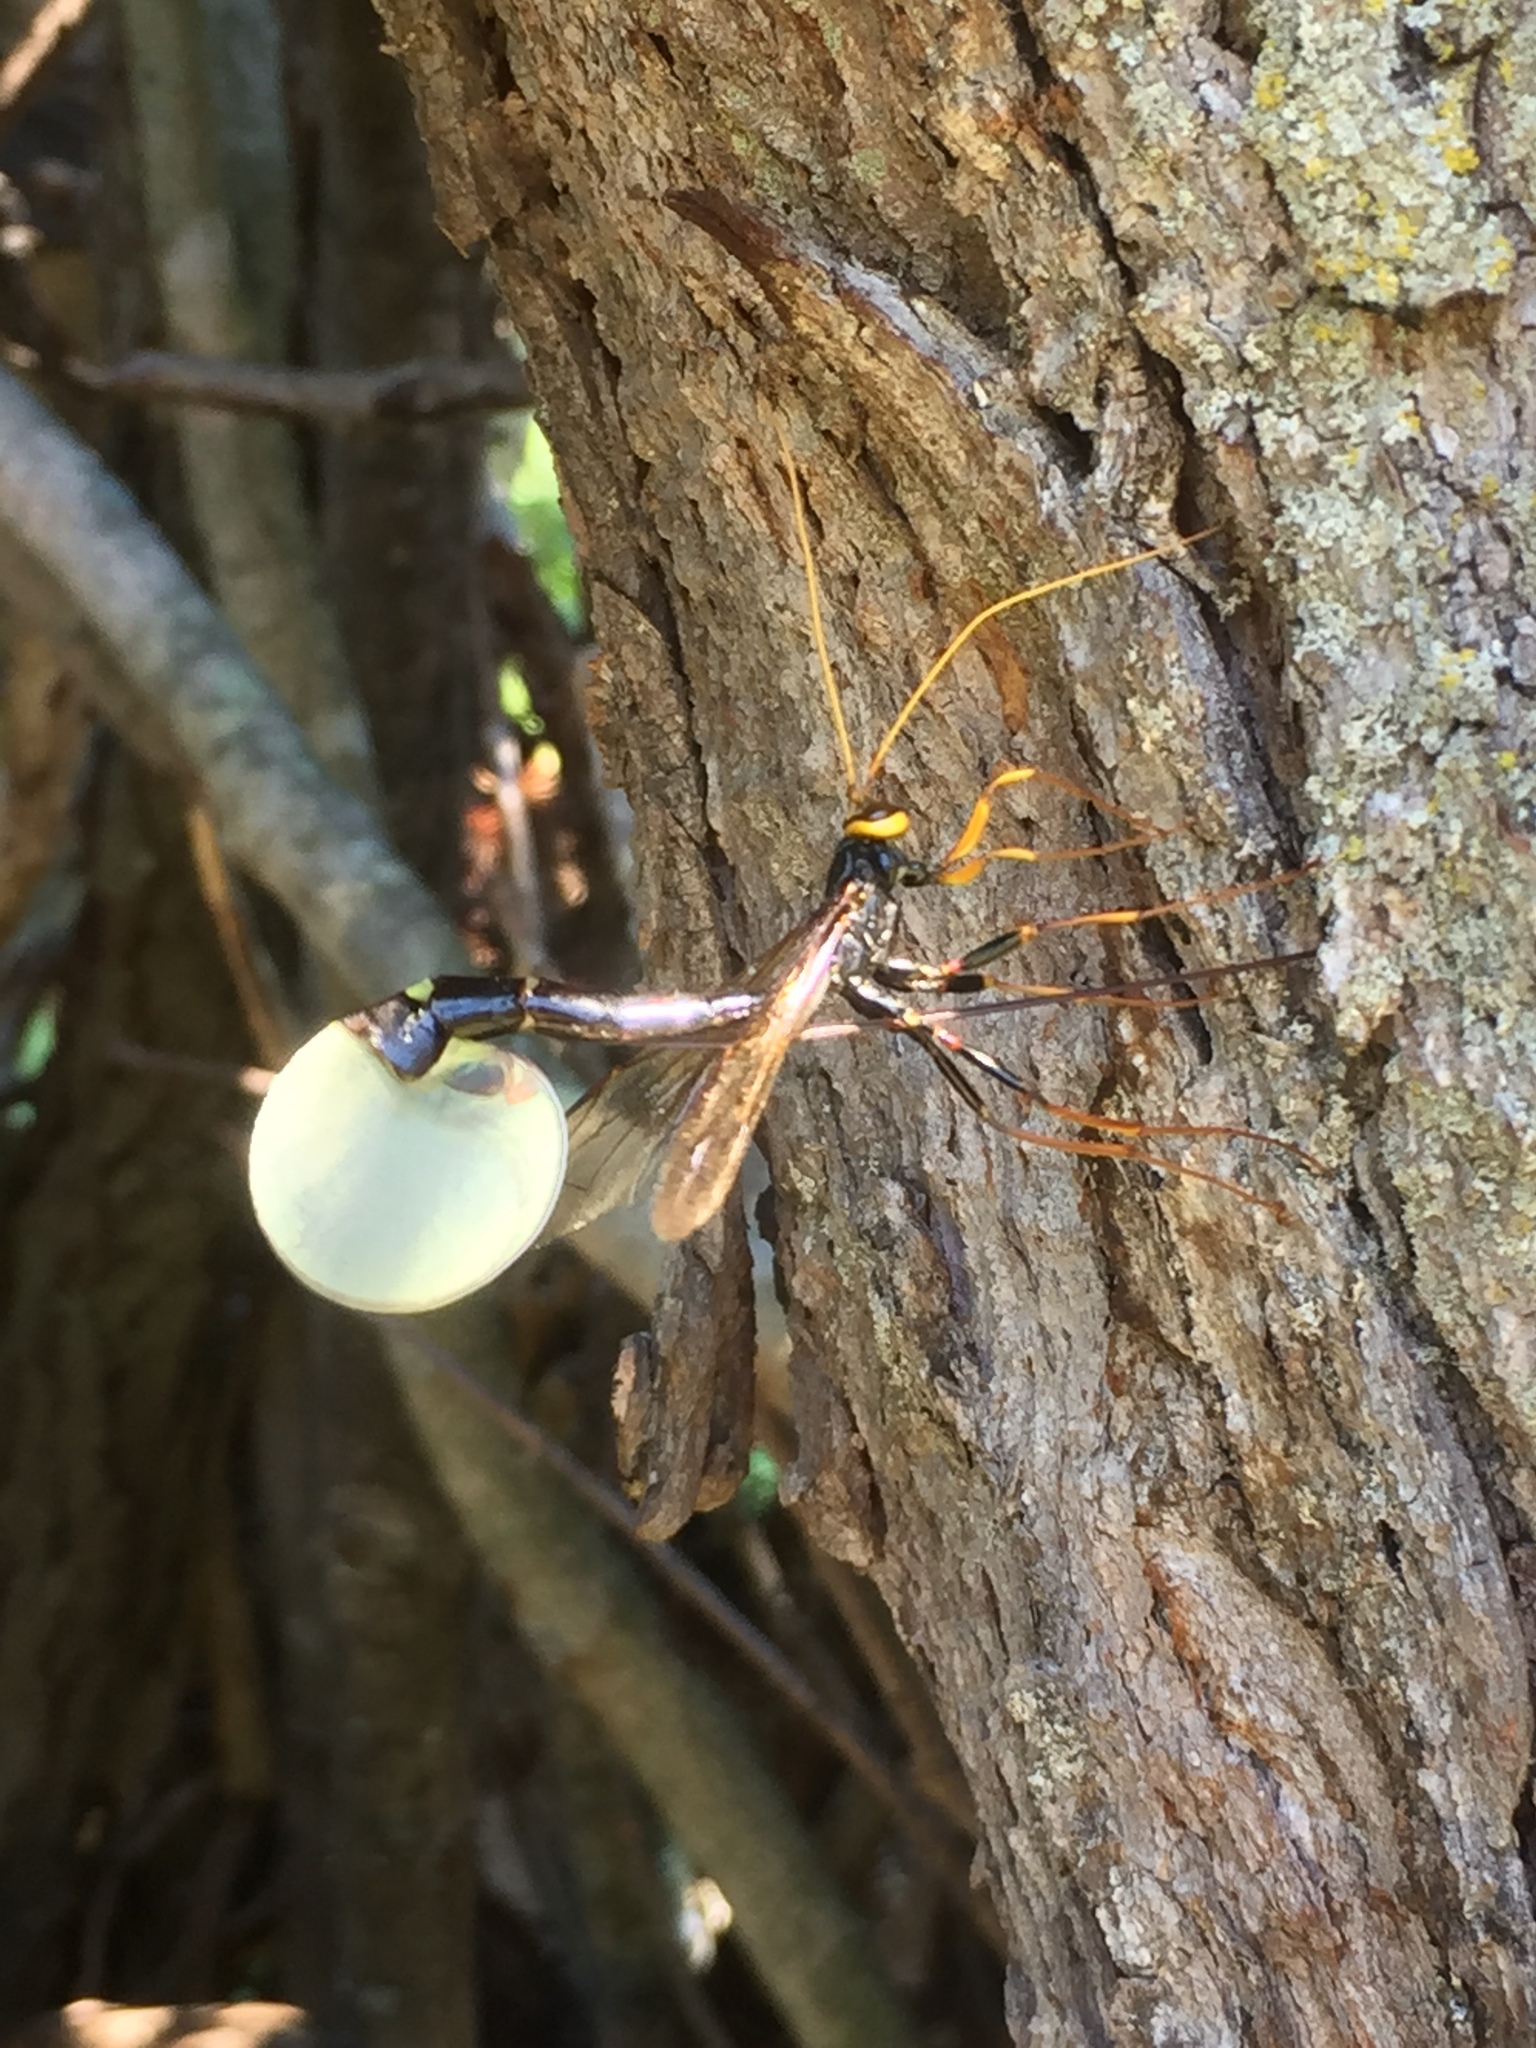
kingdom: Animalia
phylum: Arthropoda
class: Insecta
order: Hymenoptera
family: Ichneumonidae
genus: Megarhyssa
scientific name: Megarhyssa atrata
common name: Black giant ichneumonid wasp
